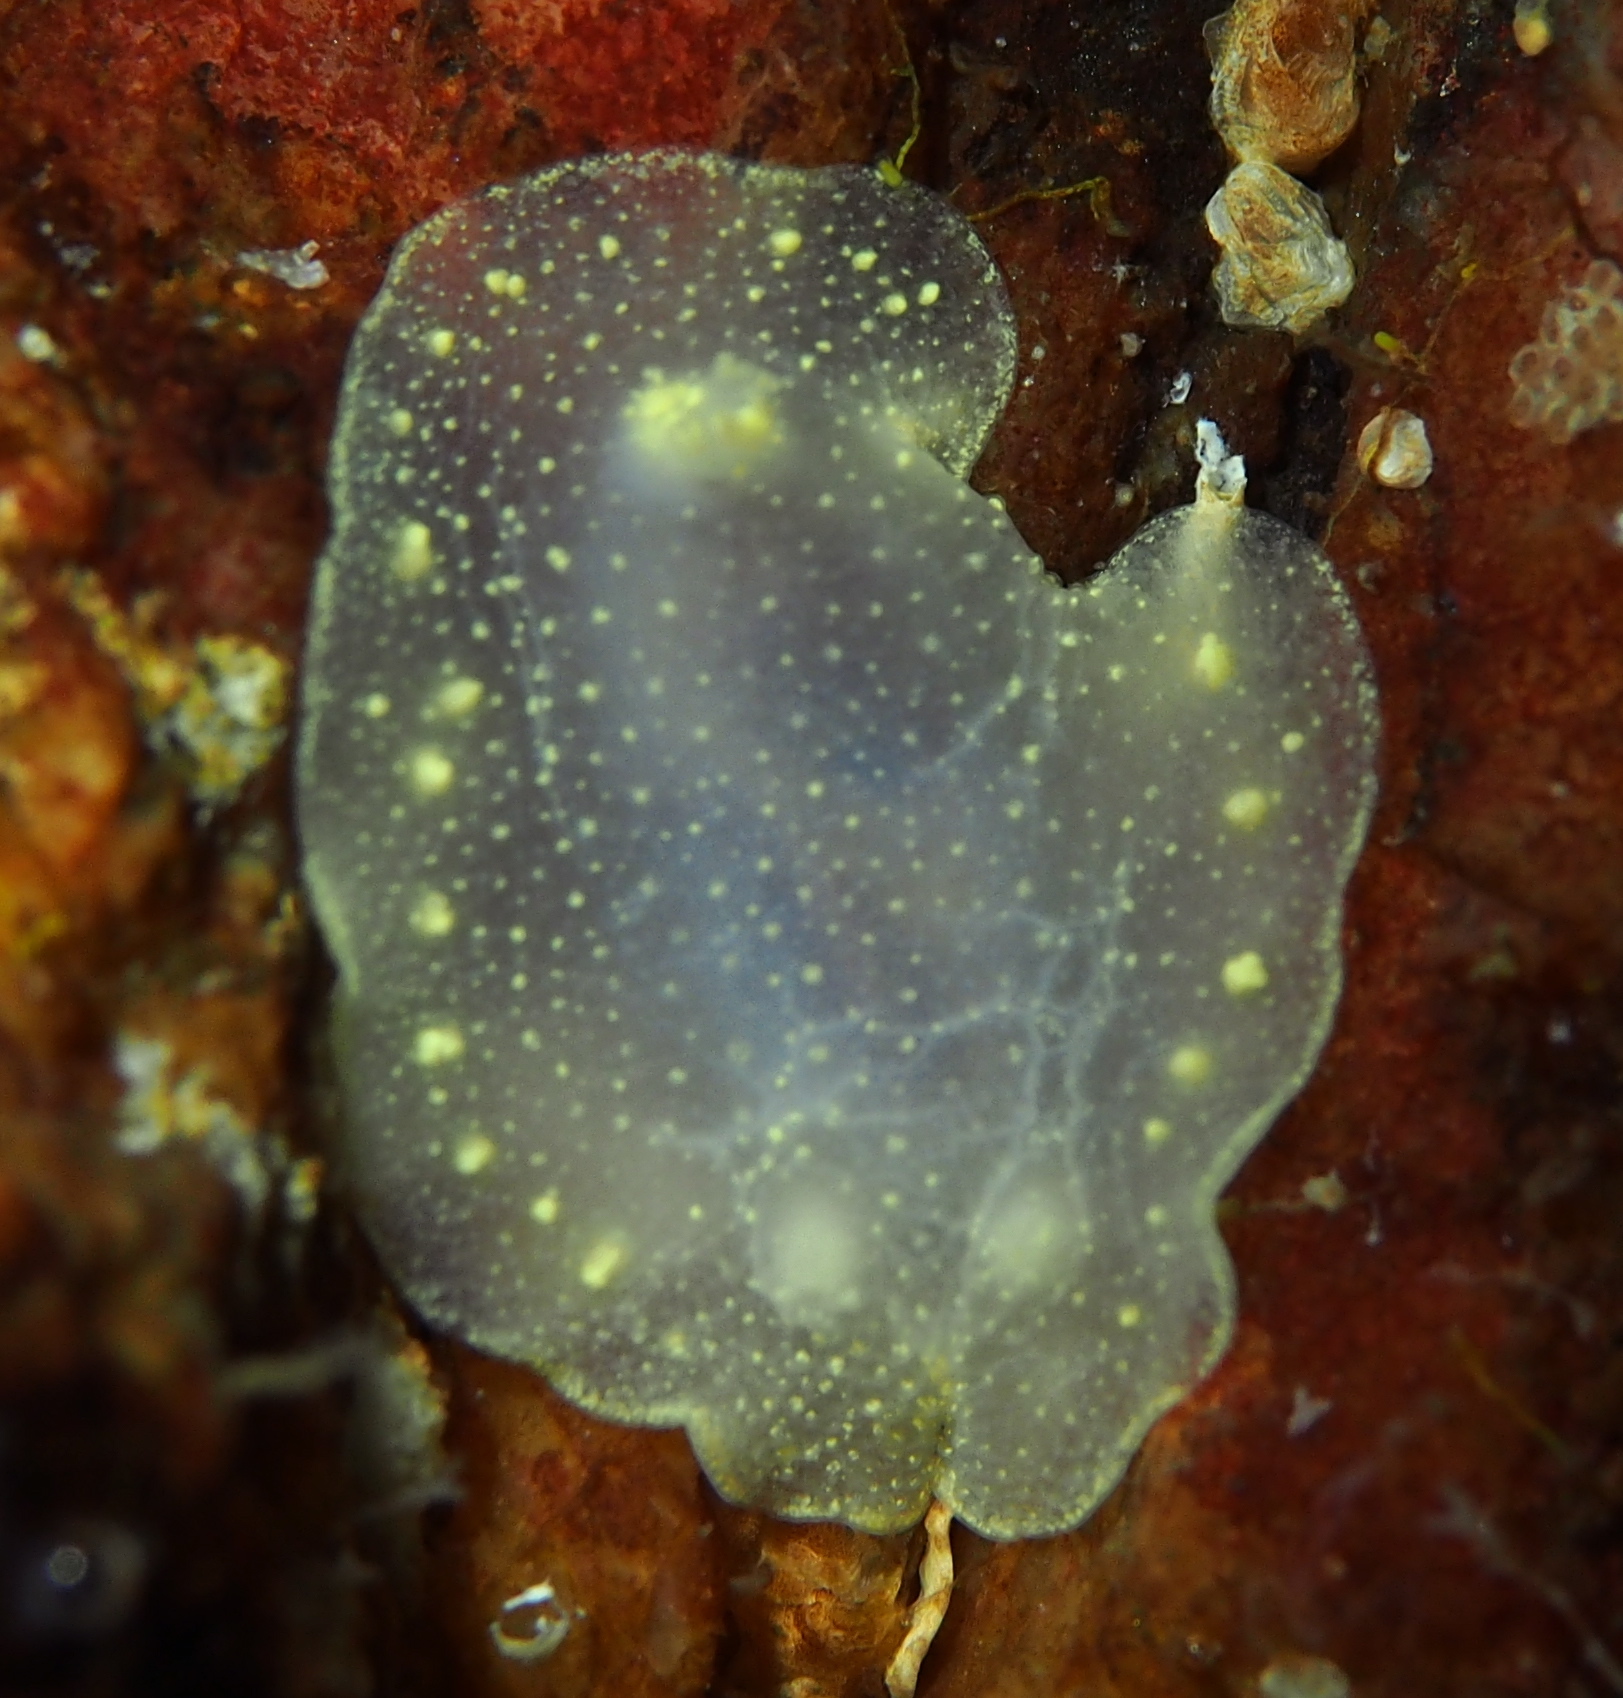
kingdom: Animalia
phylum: Mollusca
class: Gastropoda
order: Nudibranchia
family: Cadlinidae
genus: Cadlina
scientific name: Cadlina laevis
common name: White atlantic cadlina
